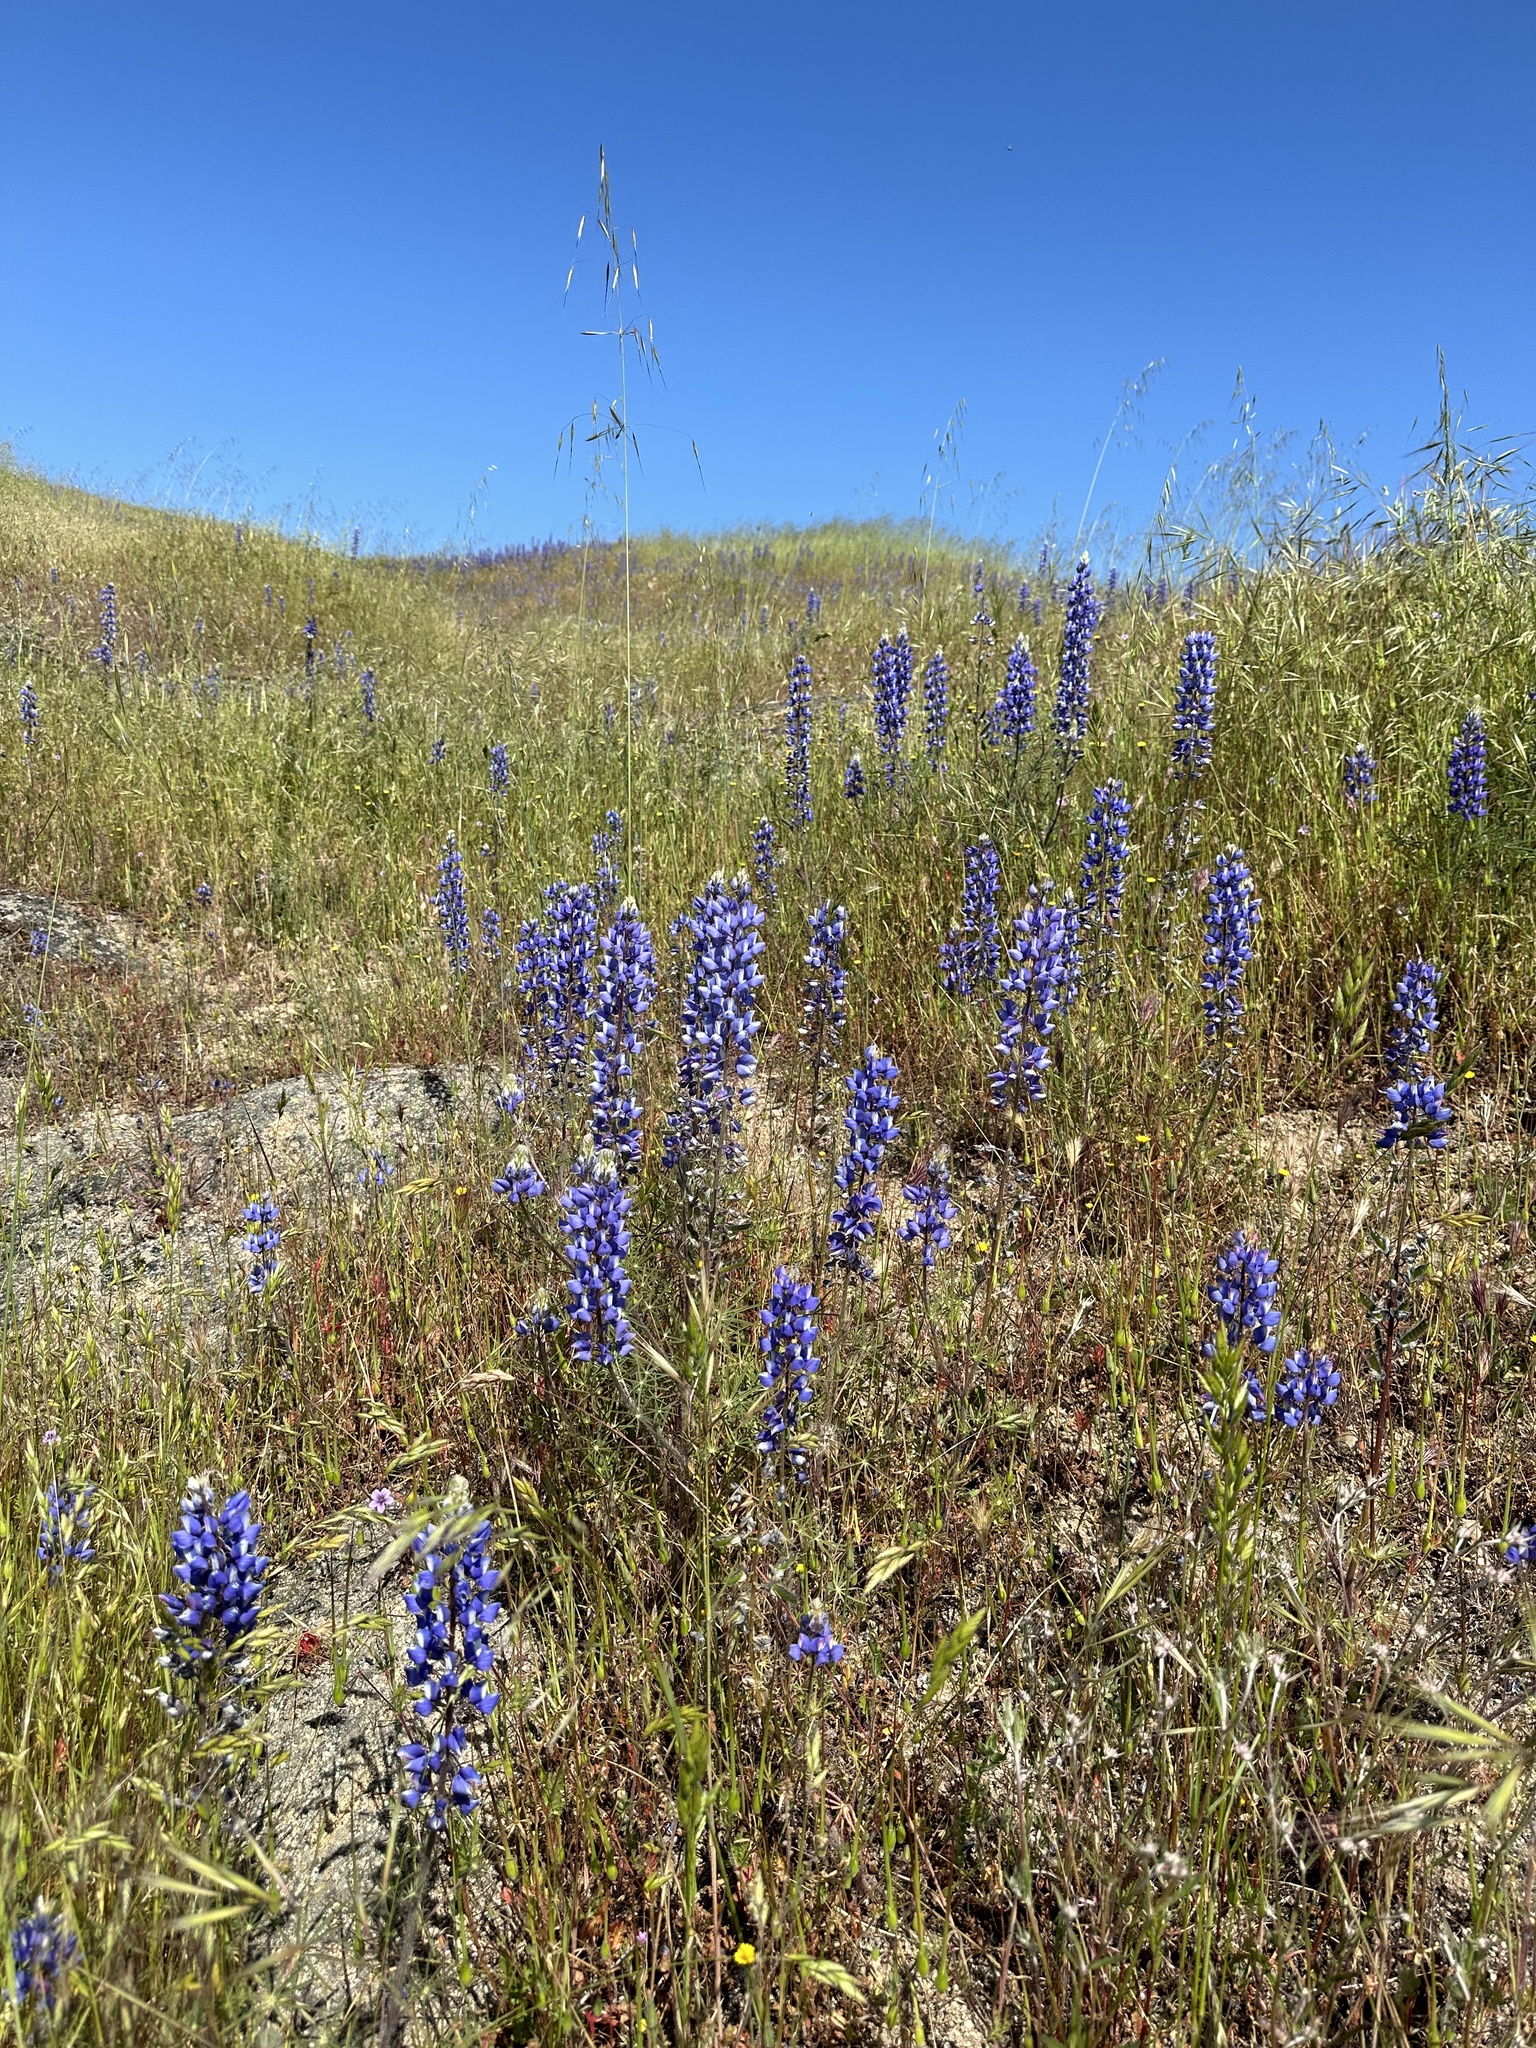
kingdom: Plantae
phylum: Tracheophyta
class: Magnoliopsida
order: Fabales
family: Fabaceae
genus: Lupinus
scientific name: Lupinus benthamii
